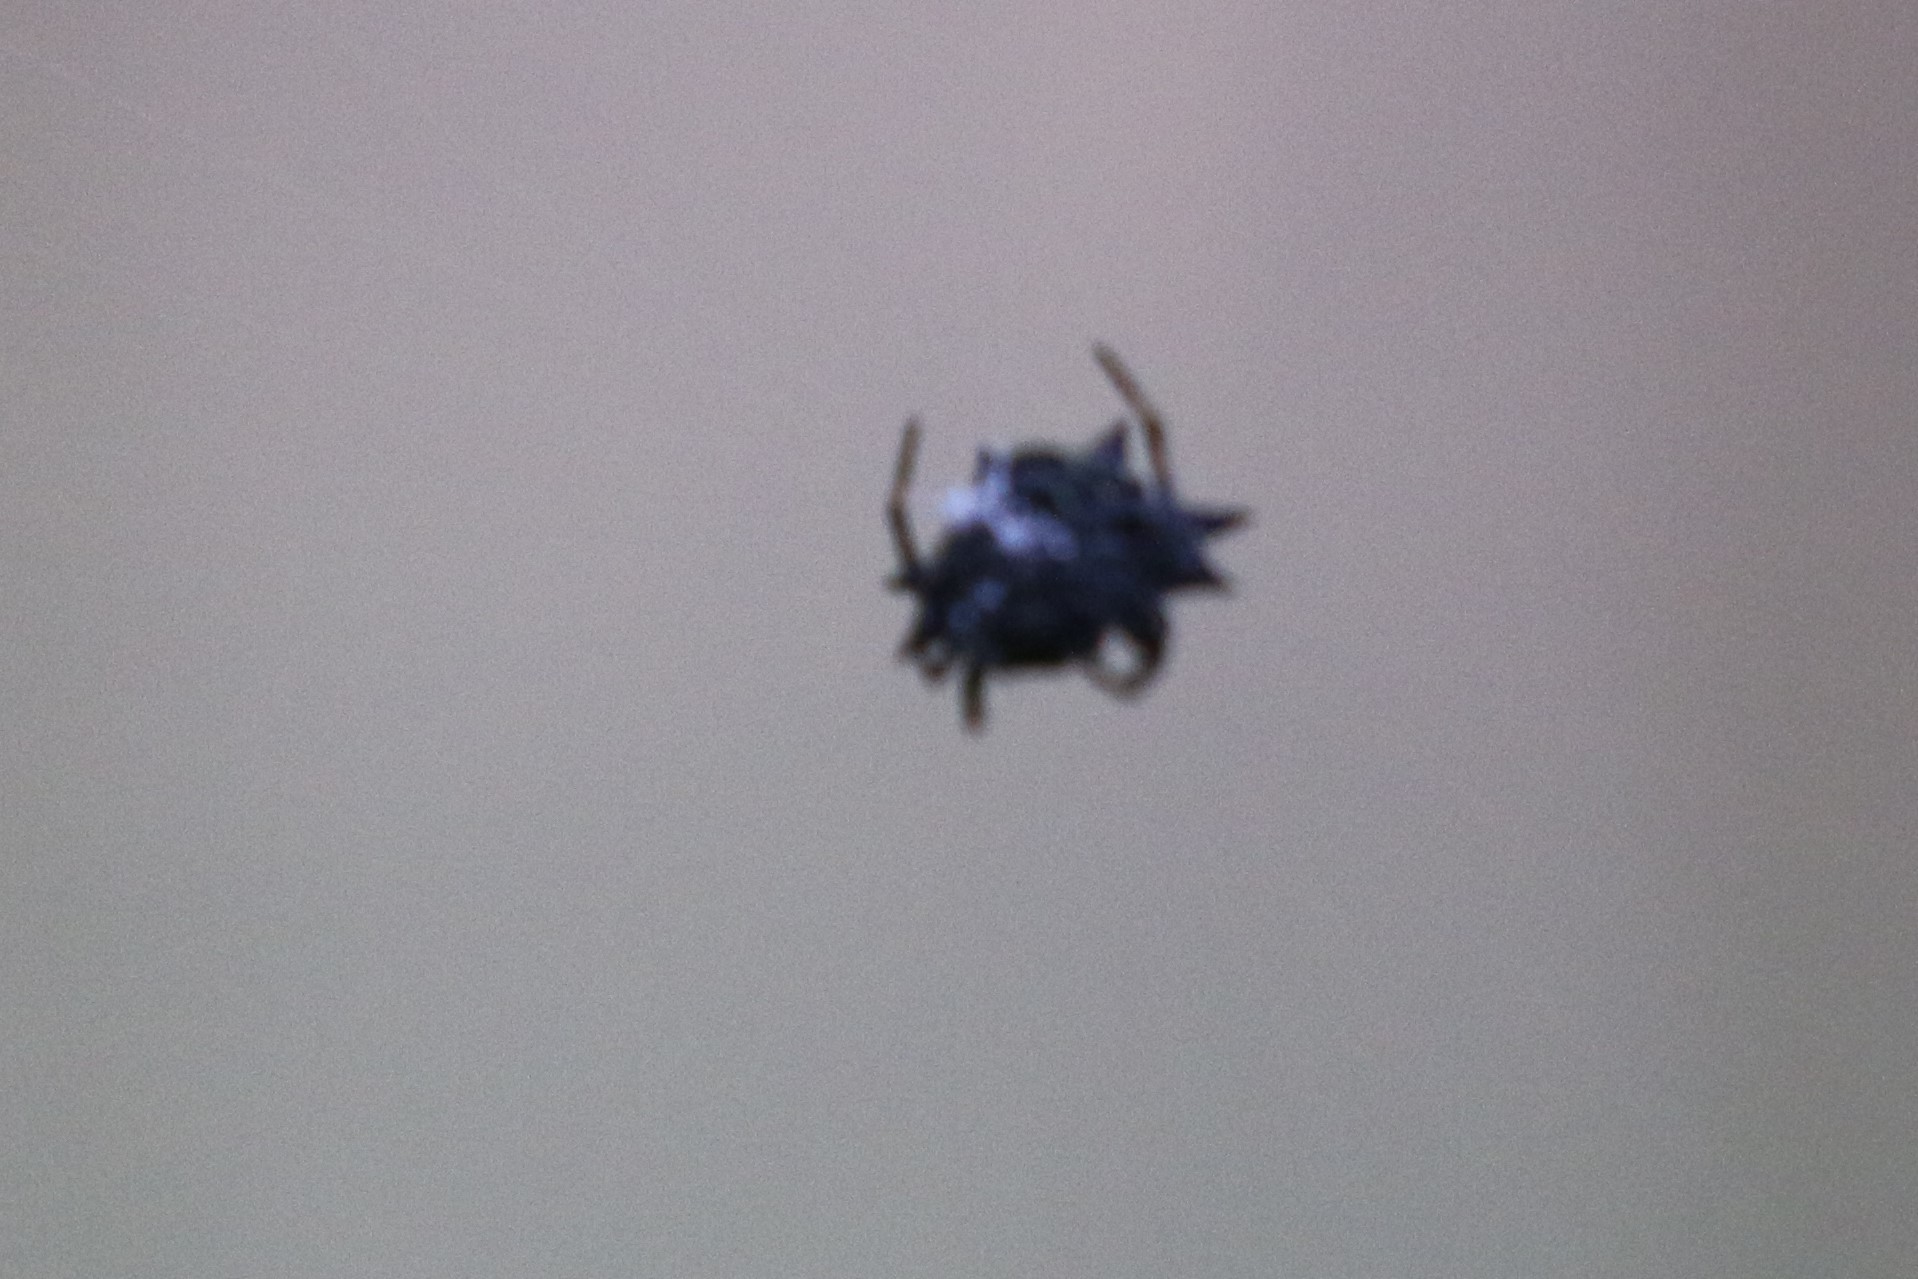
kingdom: Animalia
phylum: Arthropoda
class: Arachnida
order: Araneae
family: Araneidae
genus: Gasteracantha
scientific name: Gasteracantha cancriformis
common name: Orb weavers
